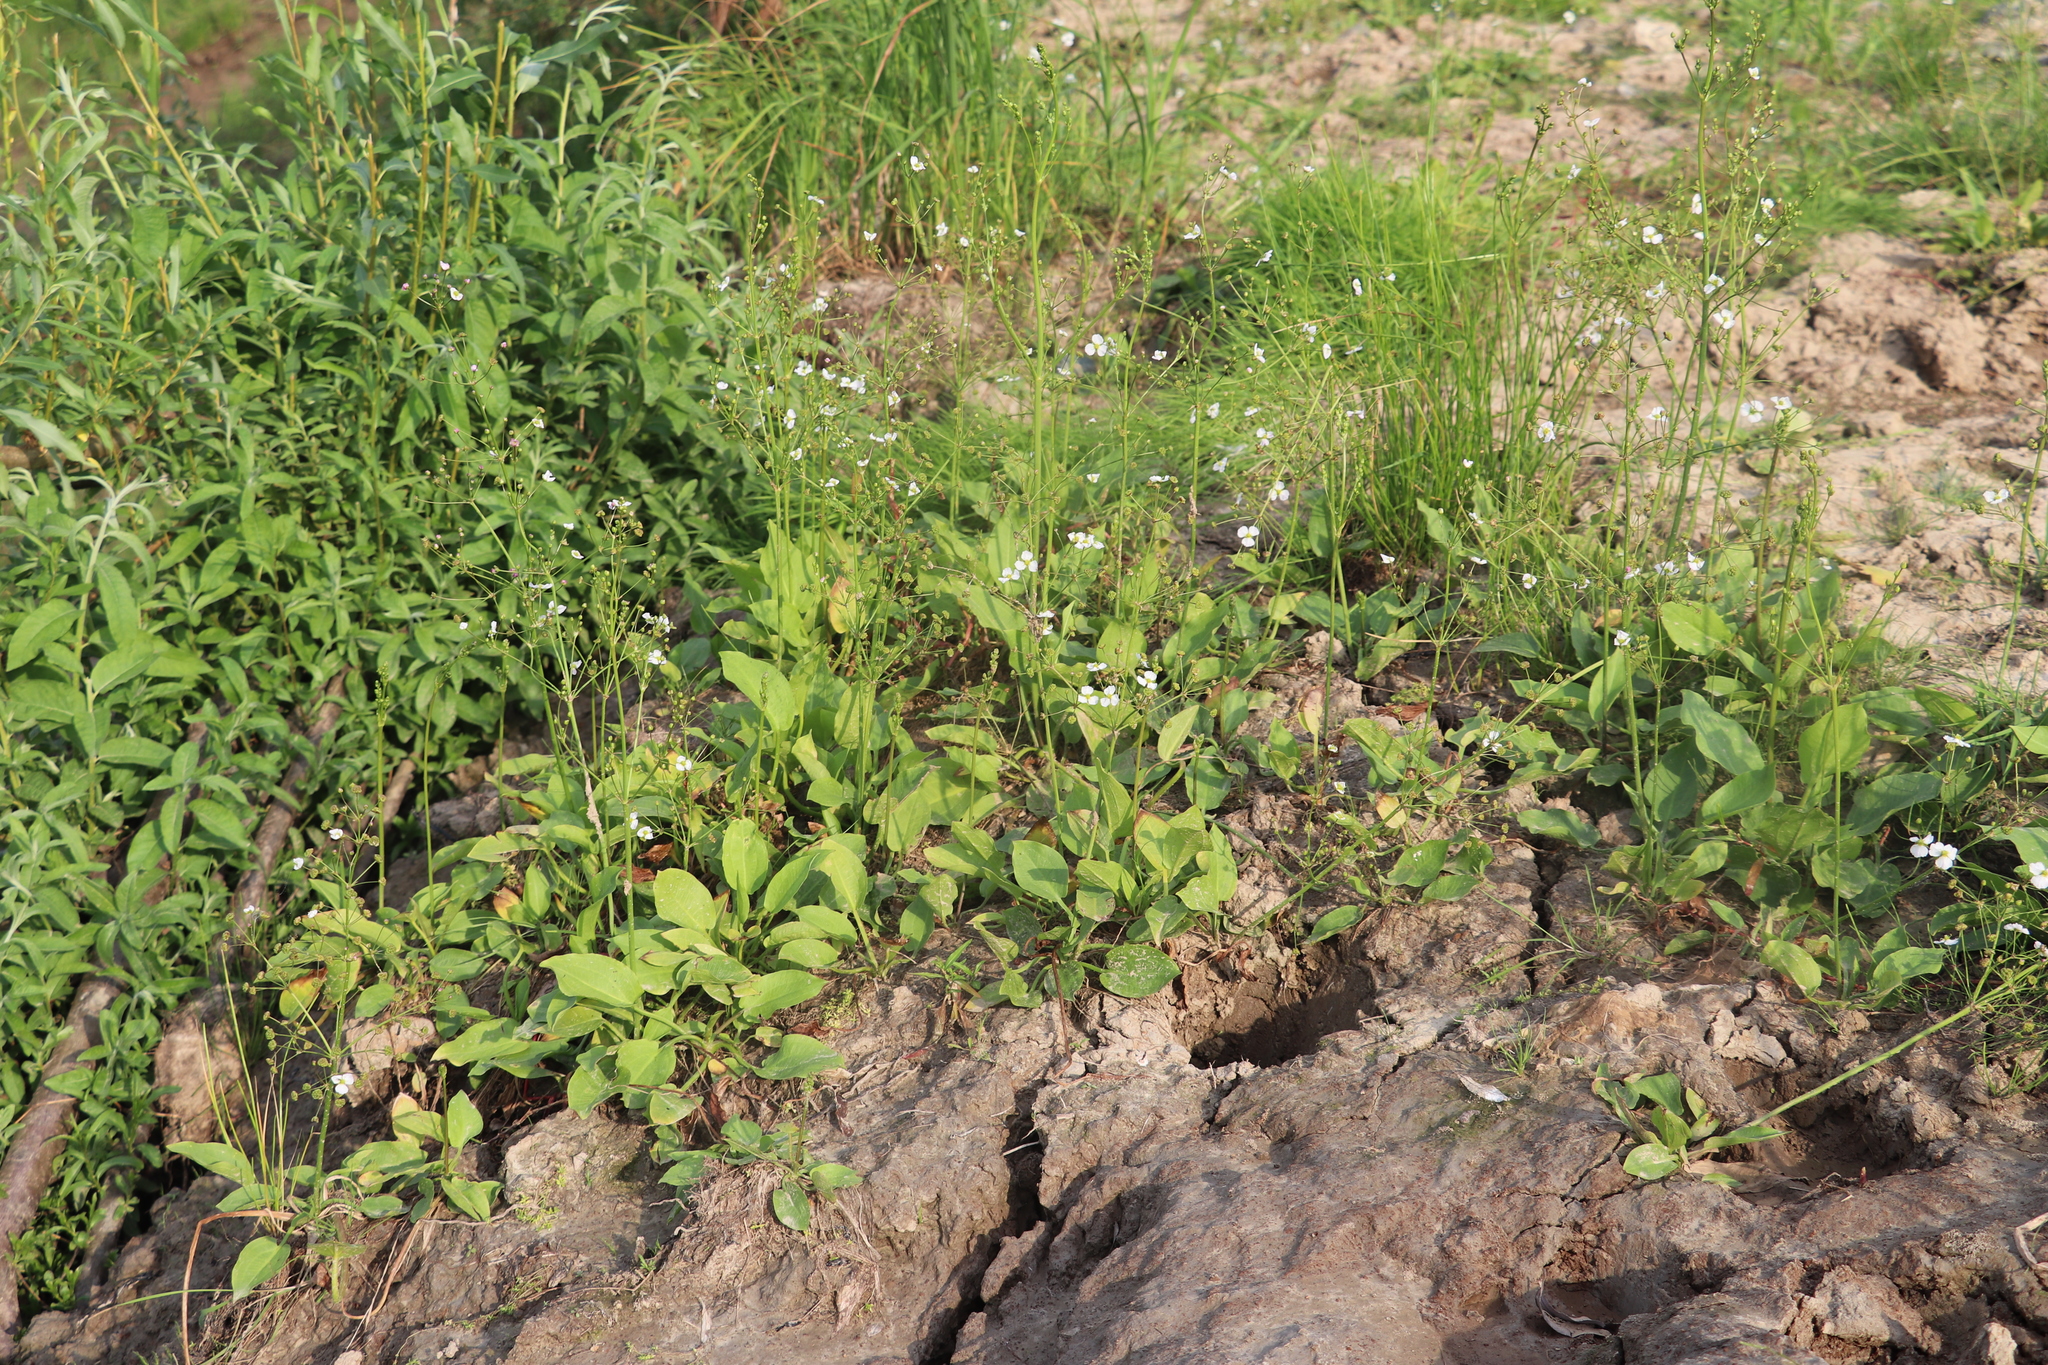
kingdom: Plantae
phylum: Tracheophyta
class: Liliopsida
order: Alismatales
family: Alismataceae
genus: Alisma
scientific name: Alisma plantago-aquatica
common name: Water-plantain
